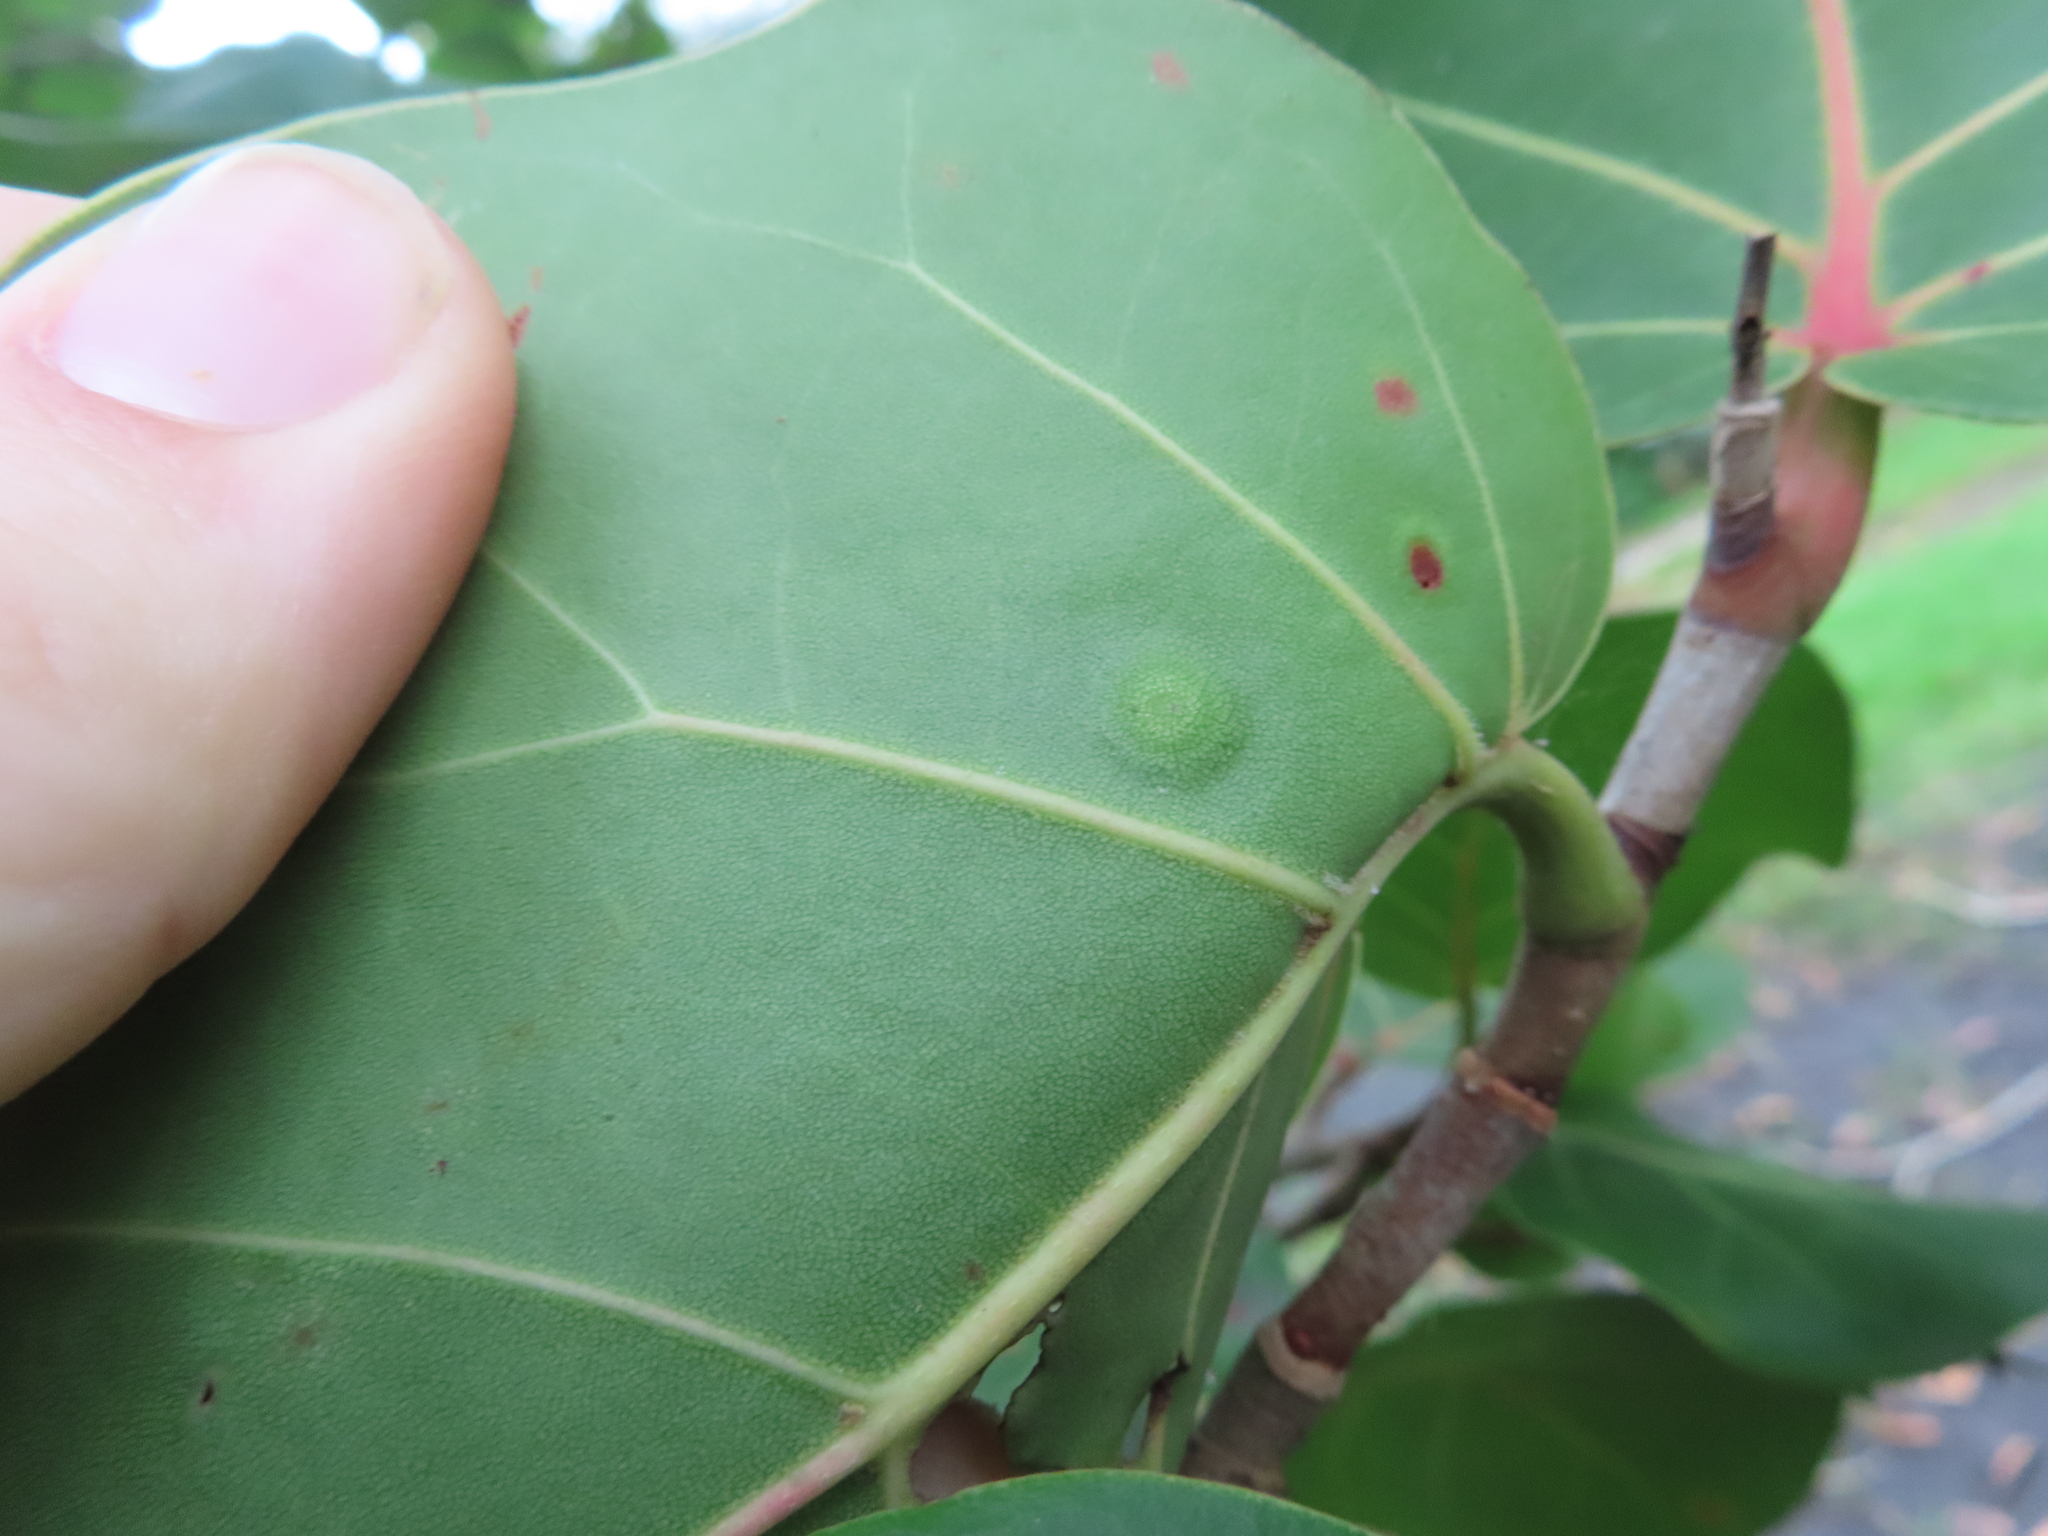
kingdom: Animalia
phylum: Arthropoda
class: Insecta
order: Diptera
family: Cecidomyiidae
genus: Ctenodactylomyia
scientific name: Ctenodactylomyia watsoni
